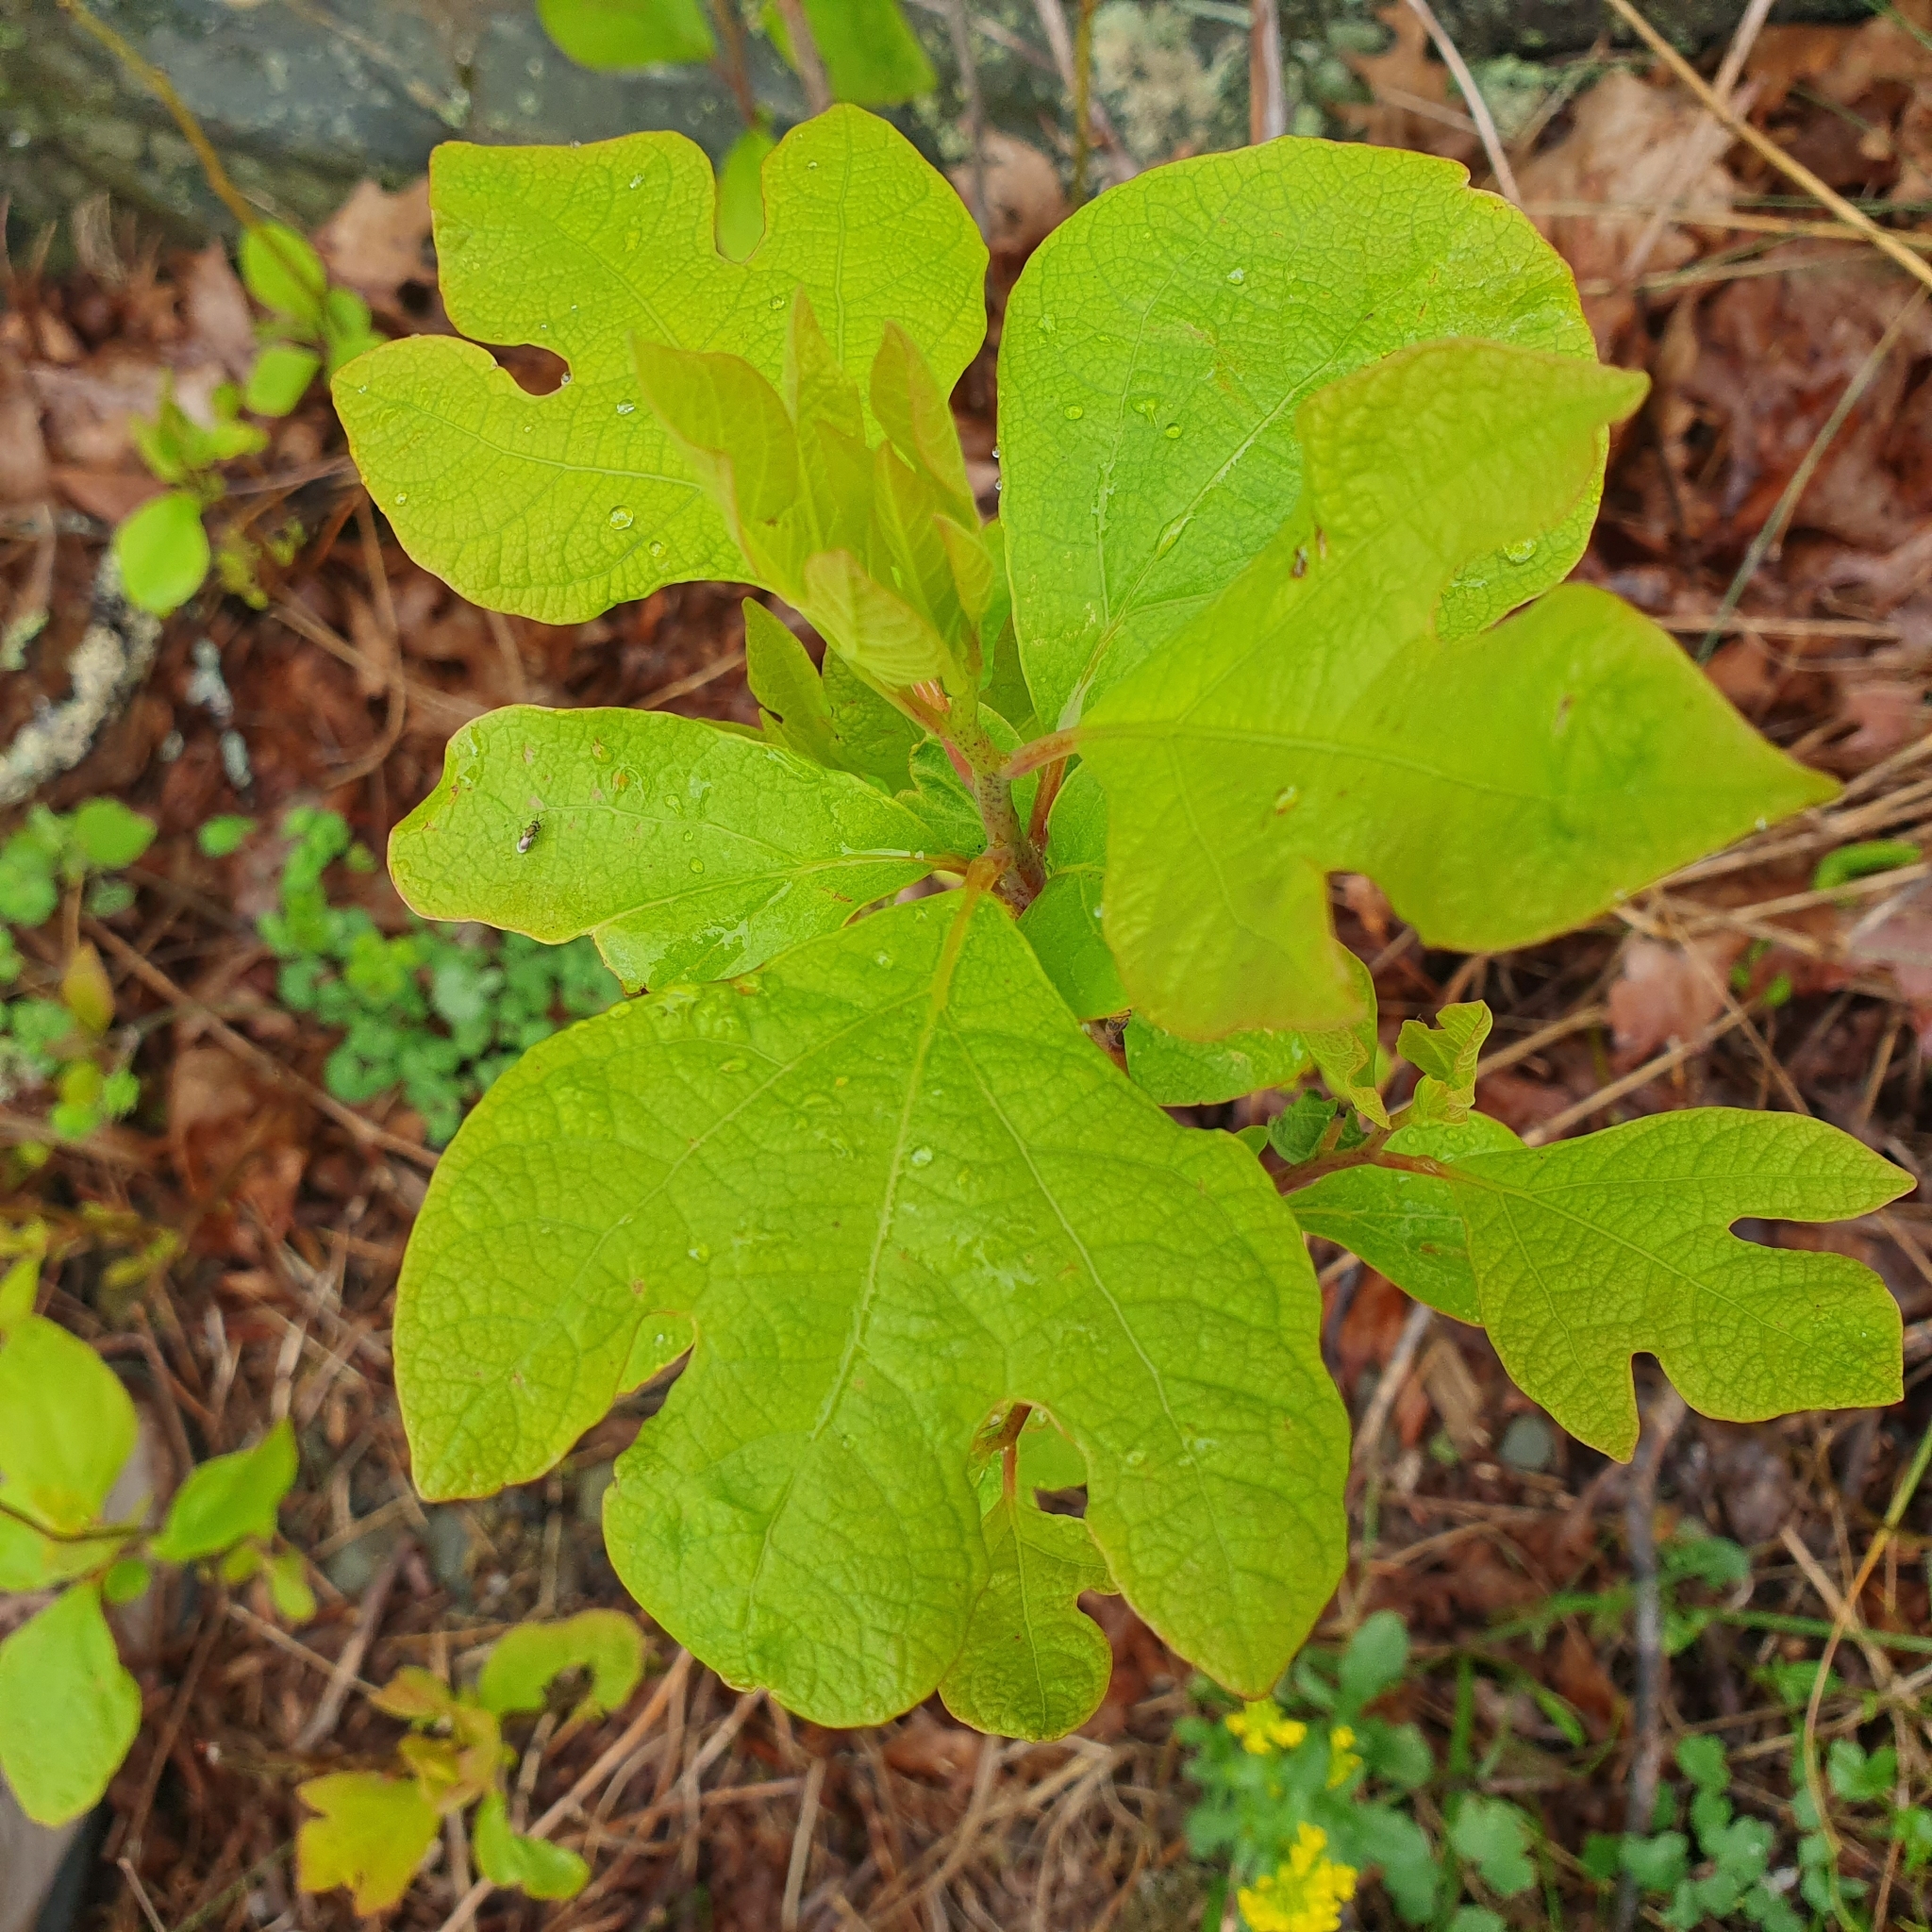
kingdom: Plantae
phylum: Tracheophyta
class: Magnoliopsida
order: Laurales
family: Lauraceae
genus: Sassafras
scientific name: Sassafras albidum
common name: Sassafras
